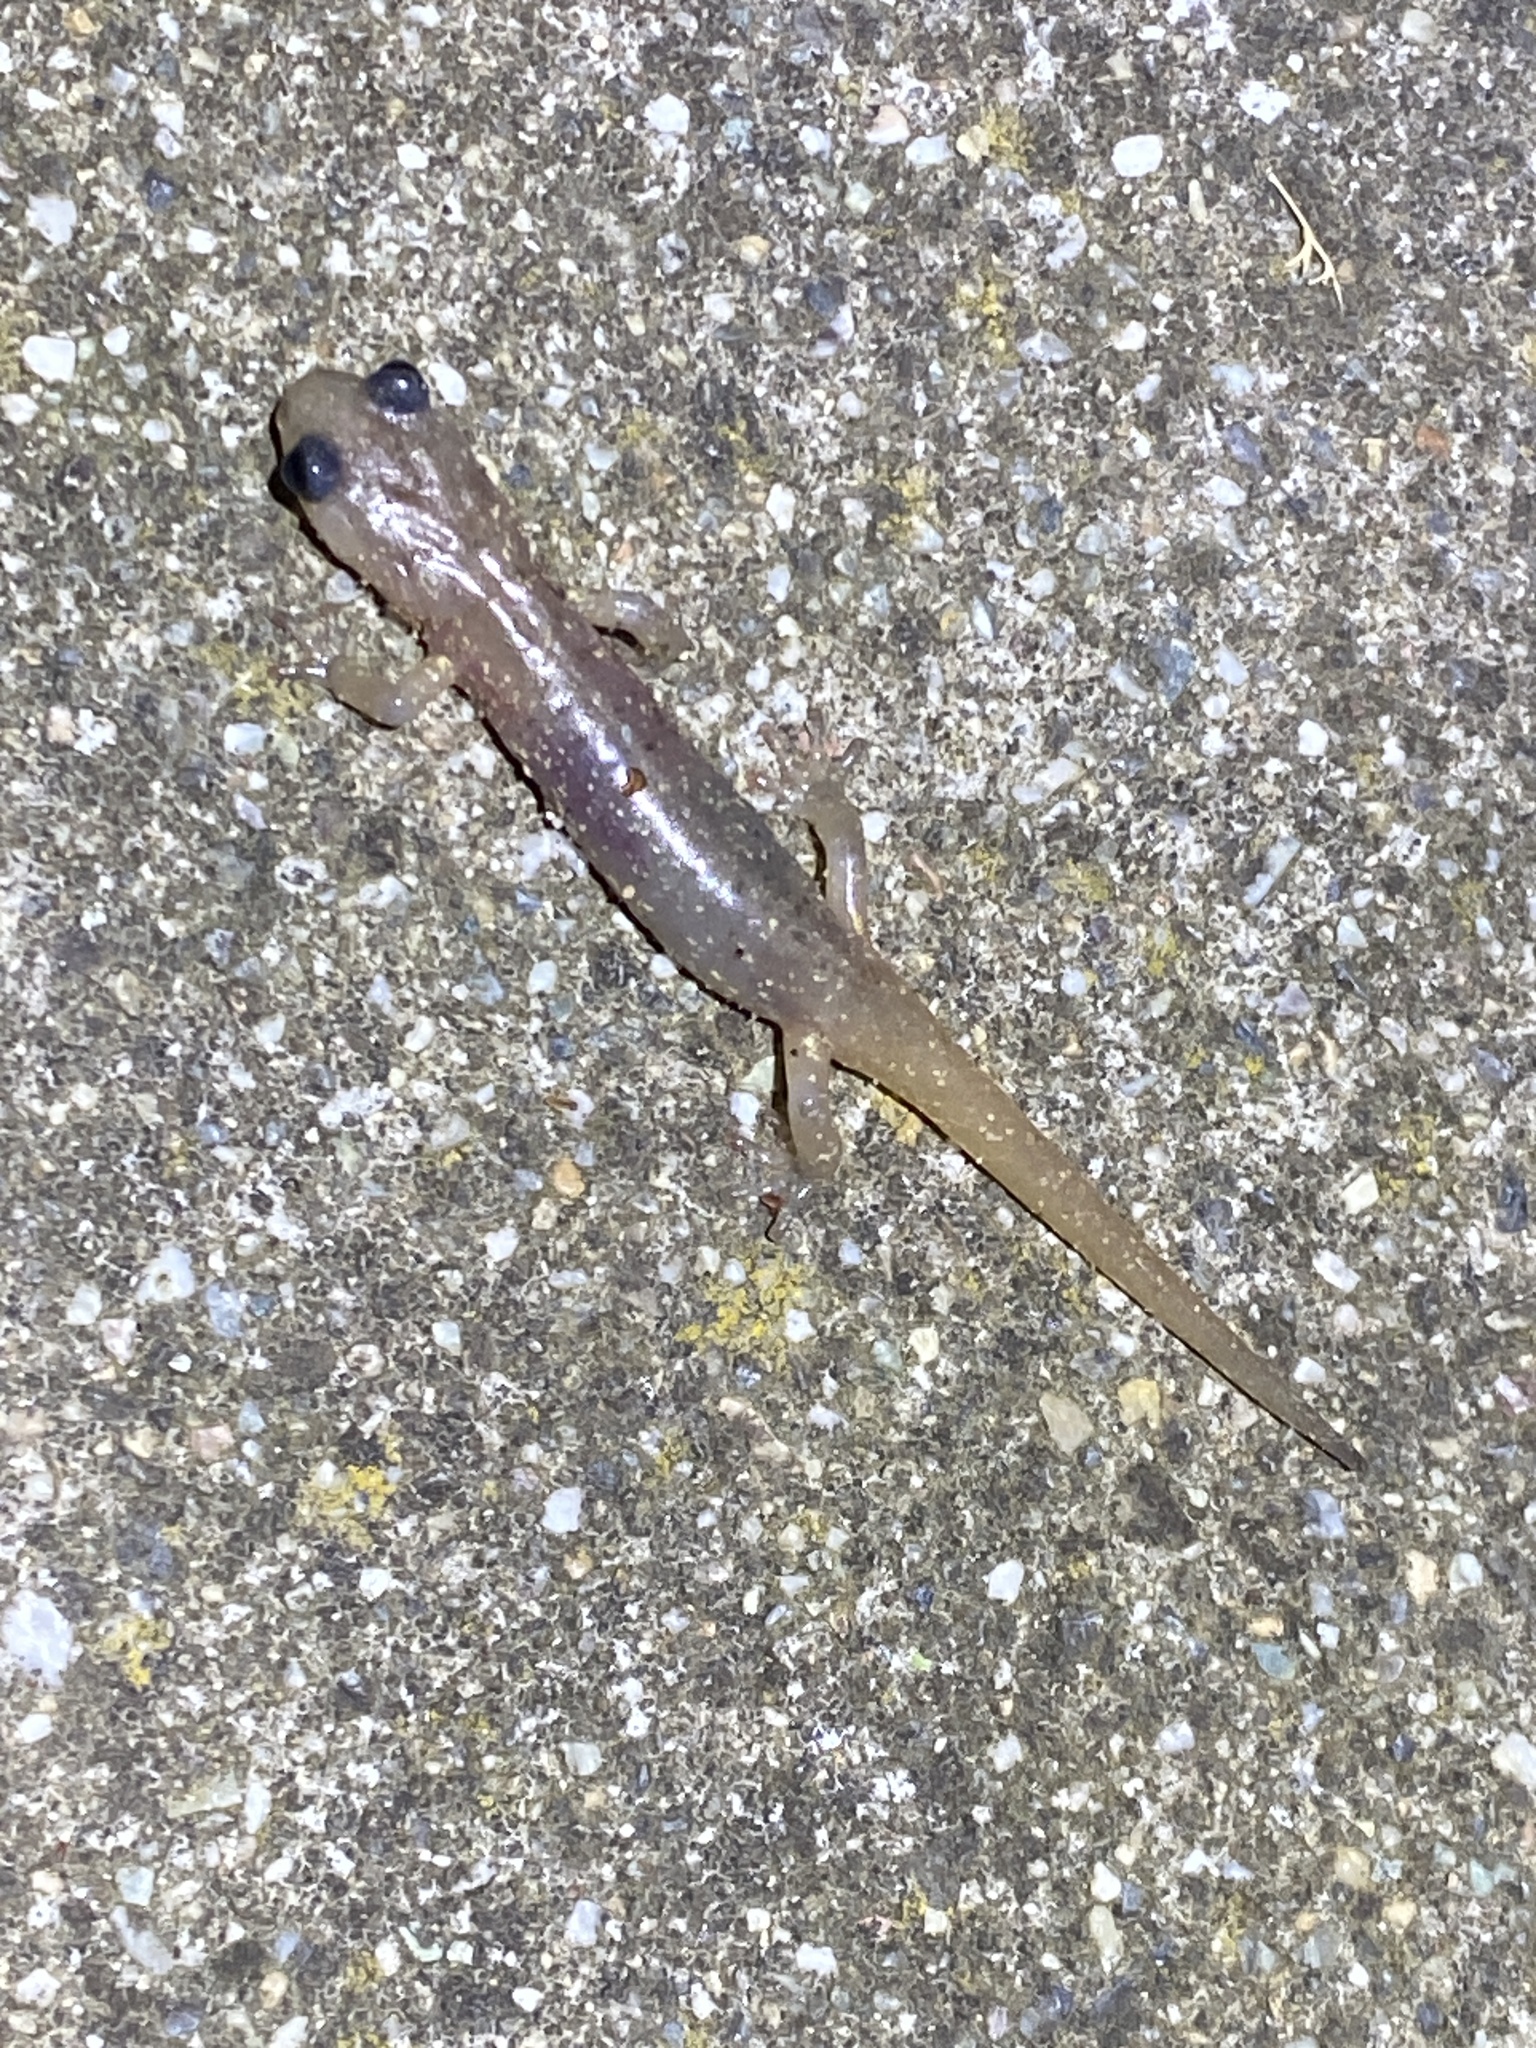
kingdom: Animalia
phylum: Chordata
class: Amphibia
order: Caudata
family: Plethodontidae
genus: Aneides
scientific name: Aneides lugubris
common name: Arboreal salamander
